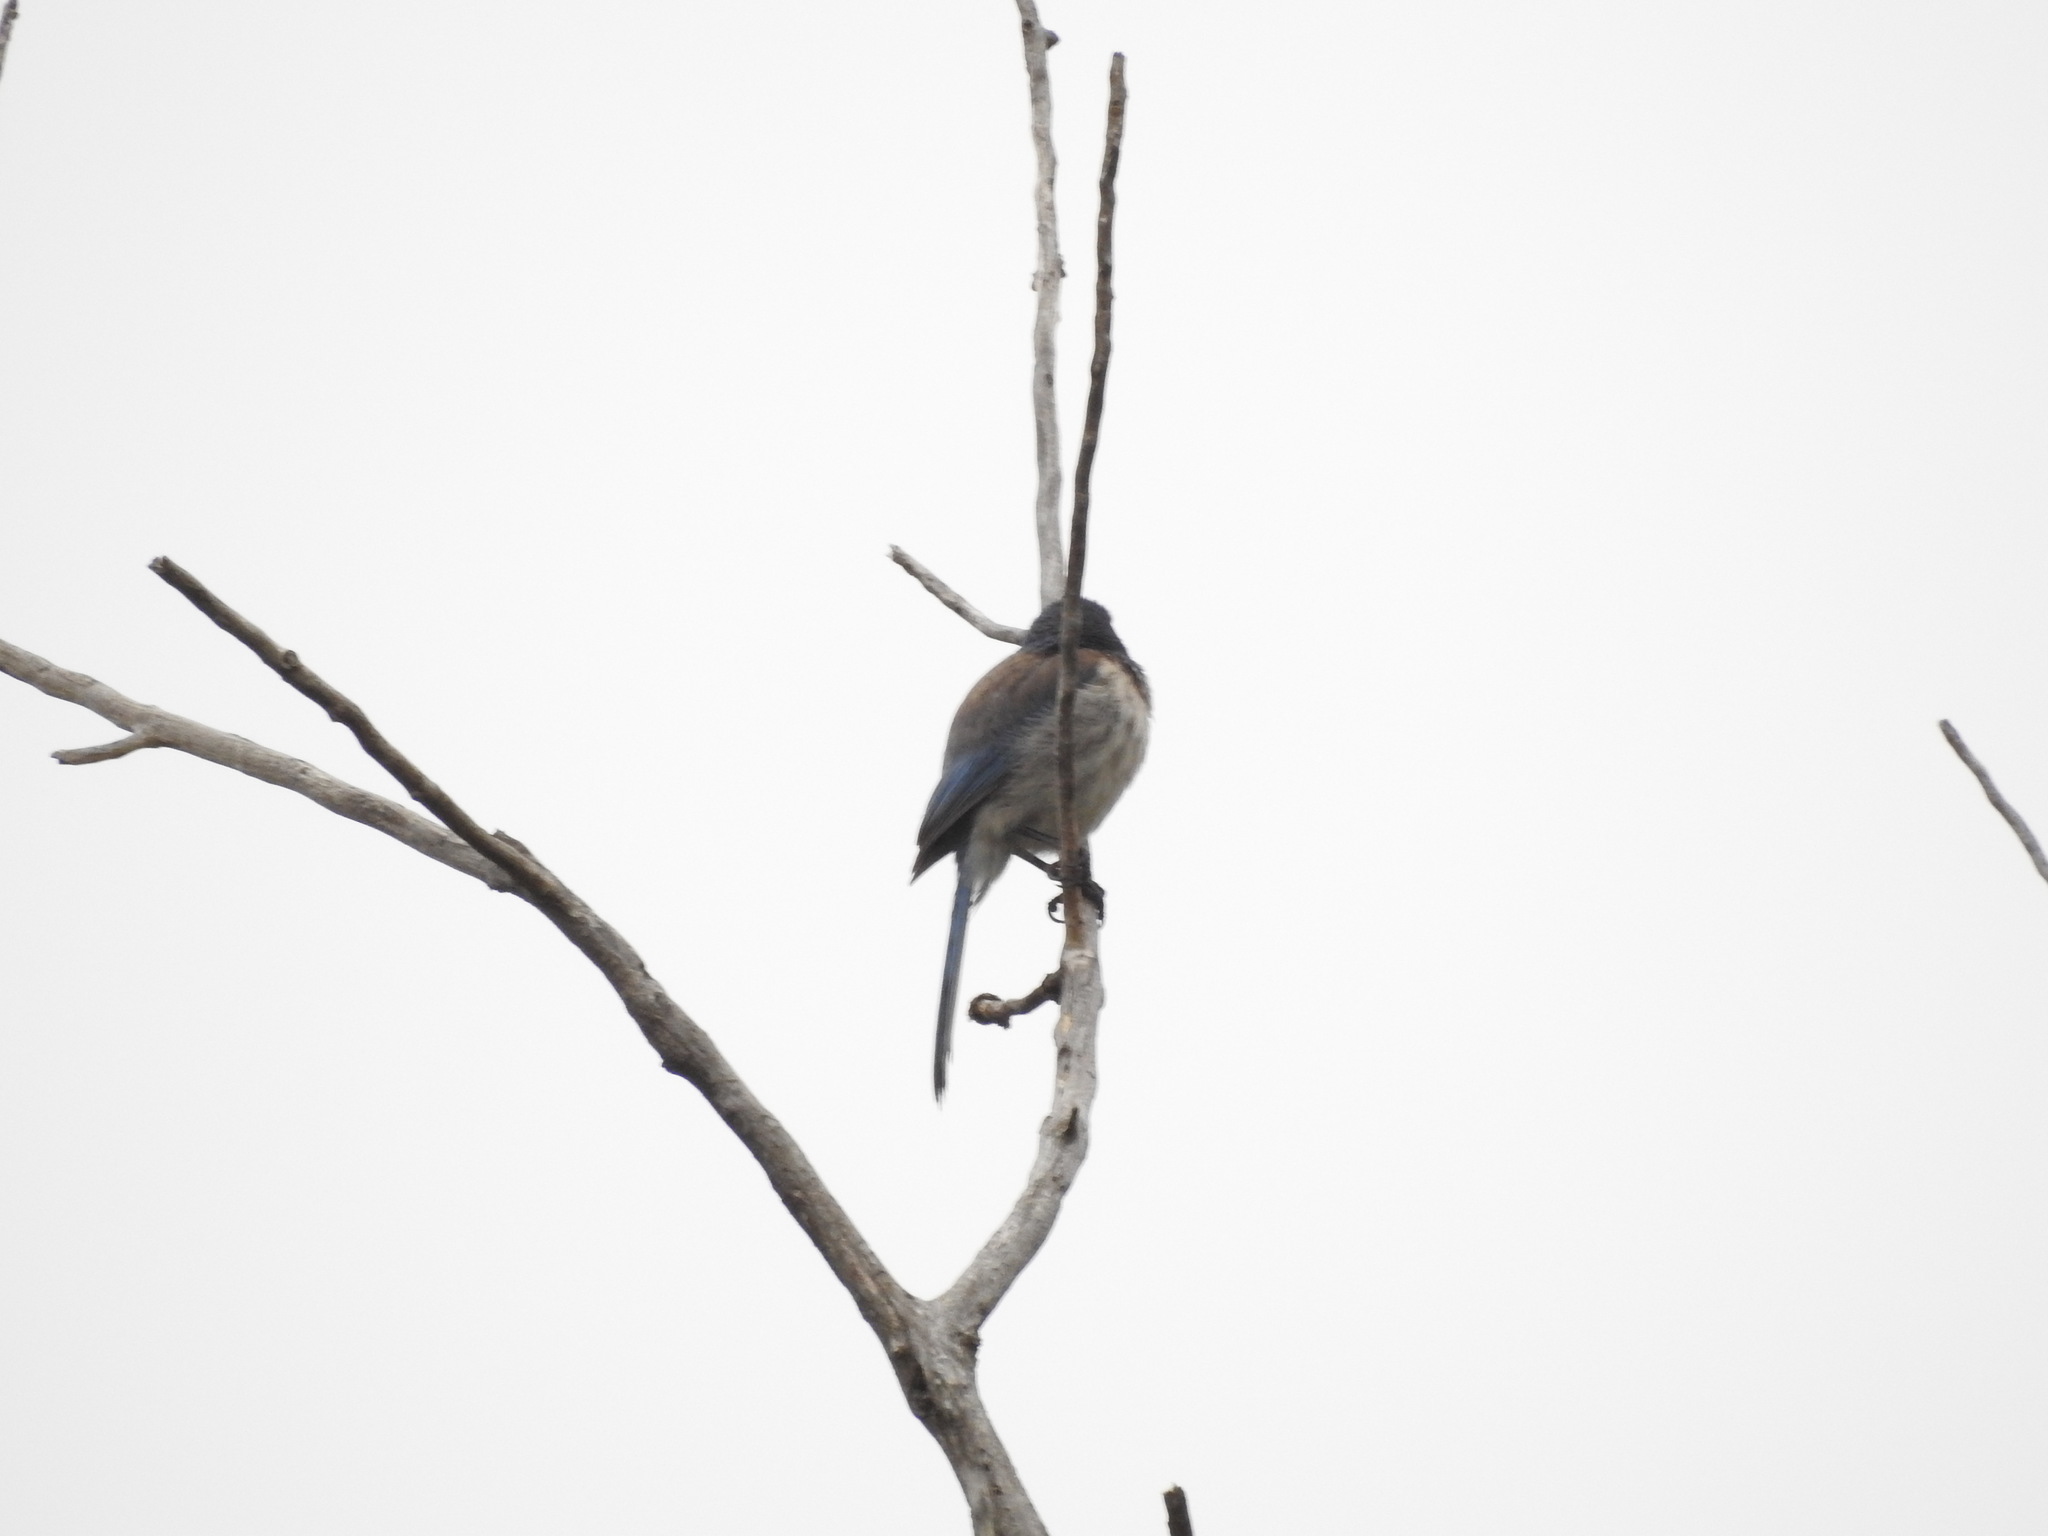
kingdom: Animalia
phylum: Chordata
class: Aves
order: Passeriformes
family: Corvidae
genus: Aphelocoma
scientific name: Aphelocoma californica
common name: California scrub-jay
